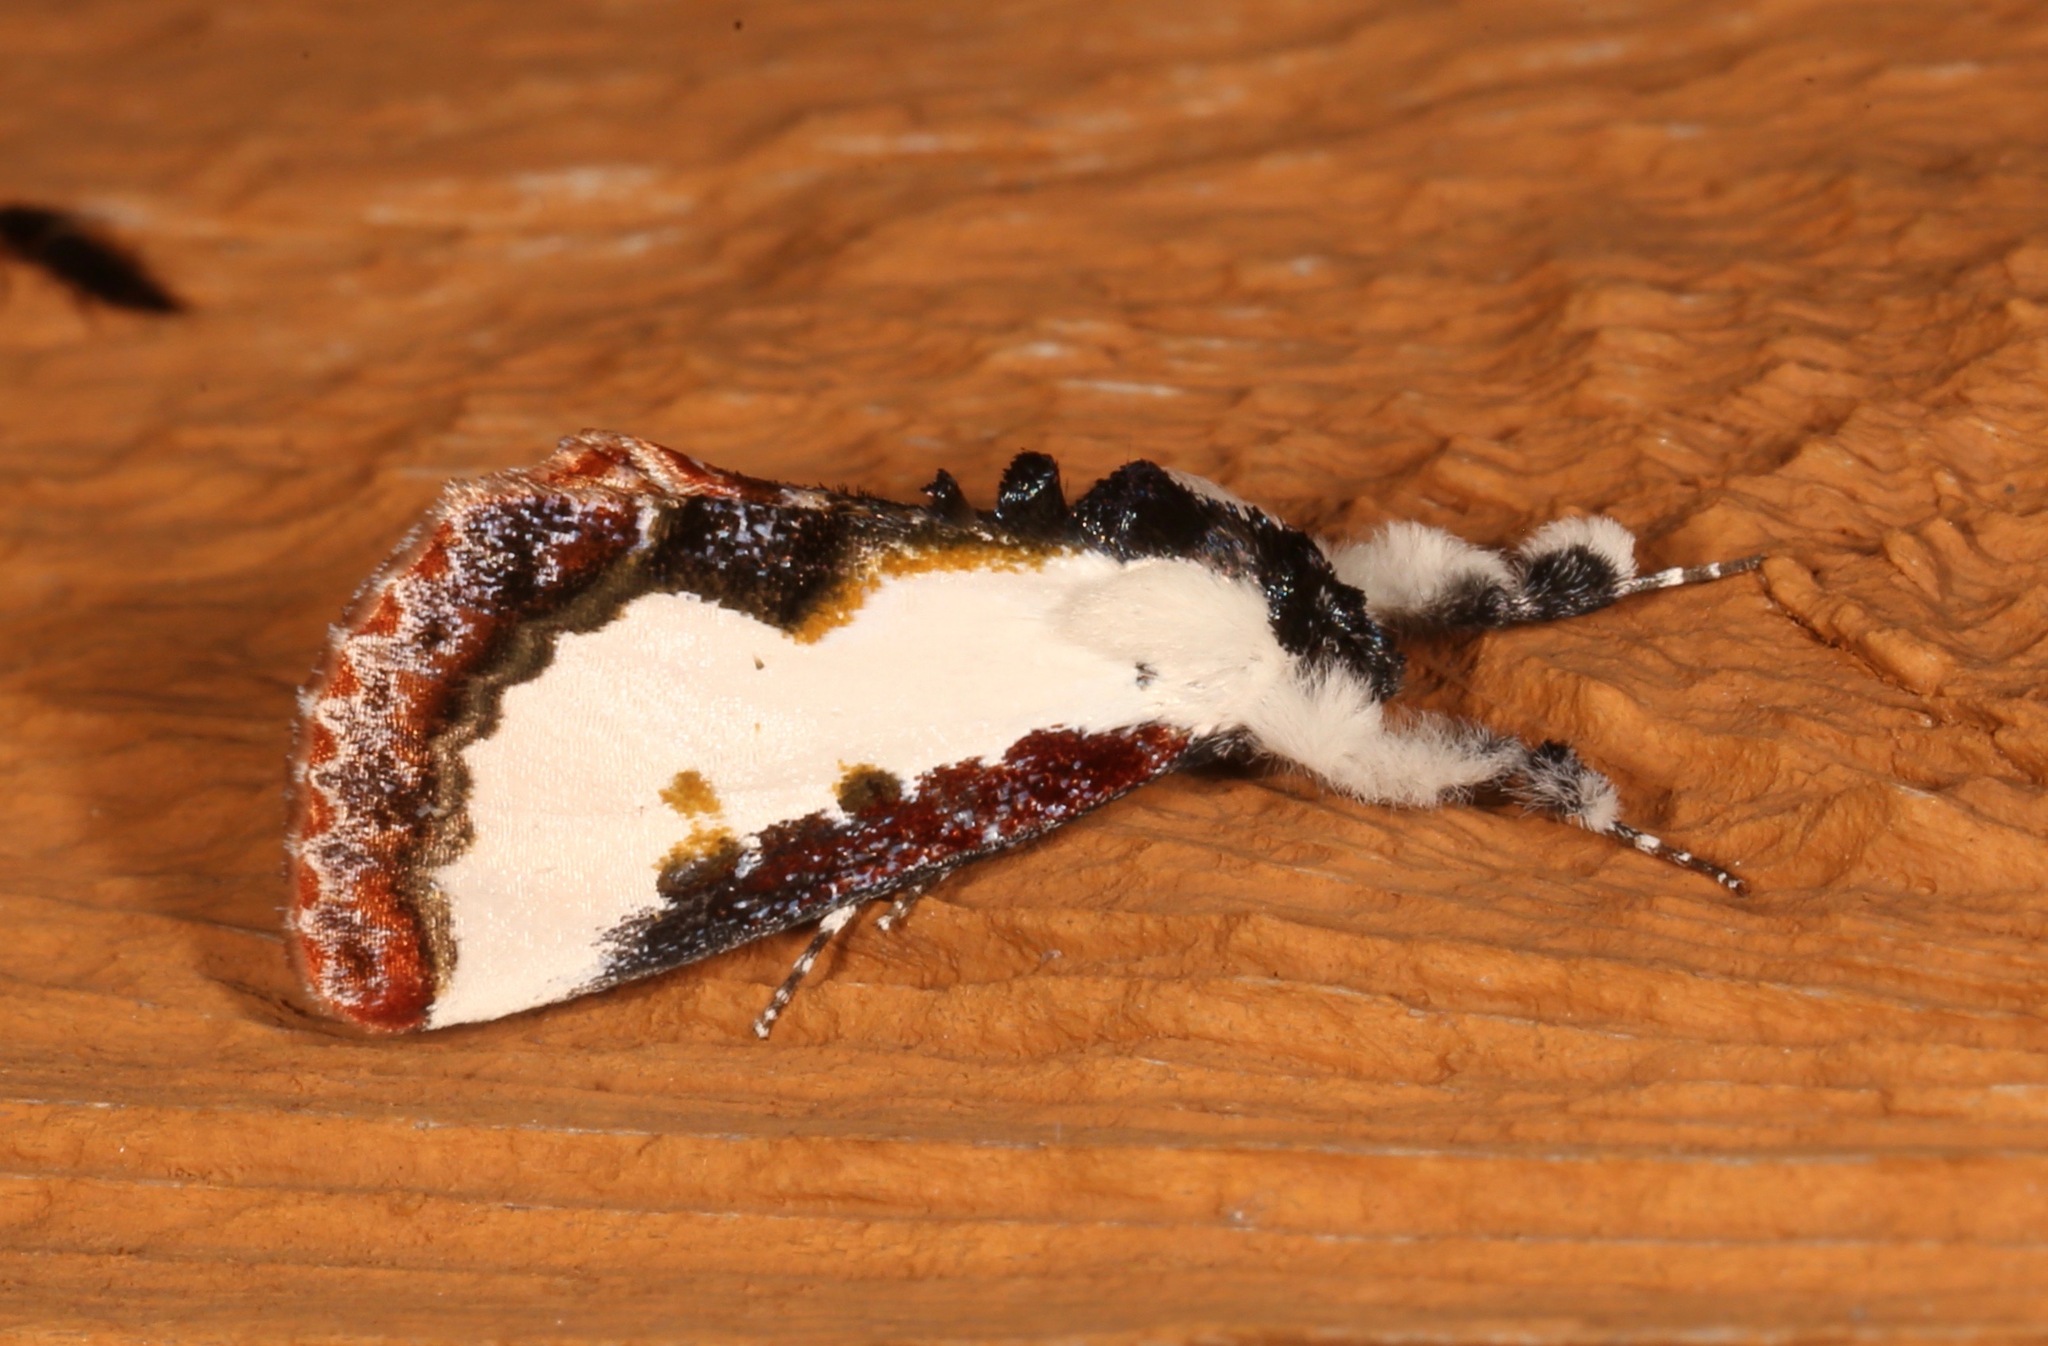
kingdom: Animalia
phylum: Arthropoda
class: Insecta
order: Lepidoptera
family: Noctuidae
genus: Eudryas
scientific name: Eudryas unio
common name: Pearly wood-nymph
